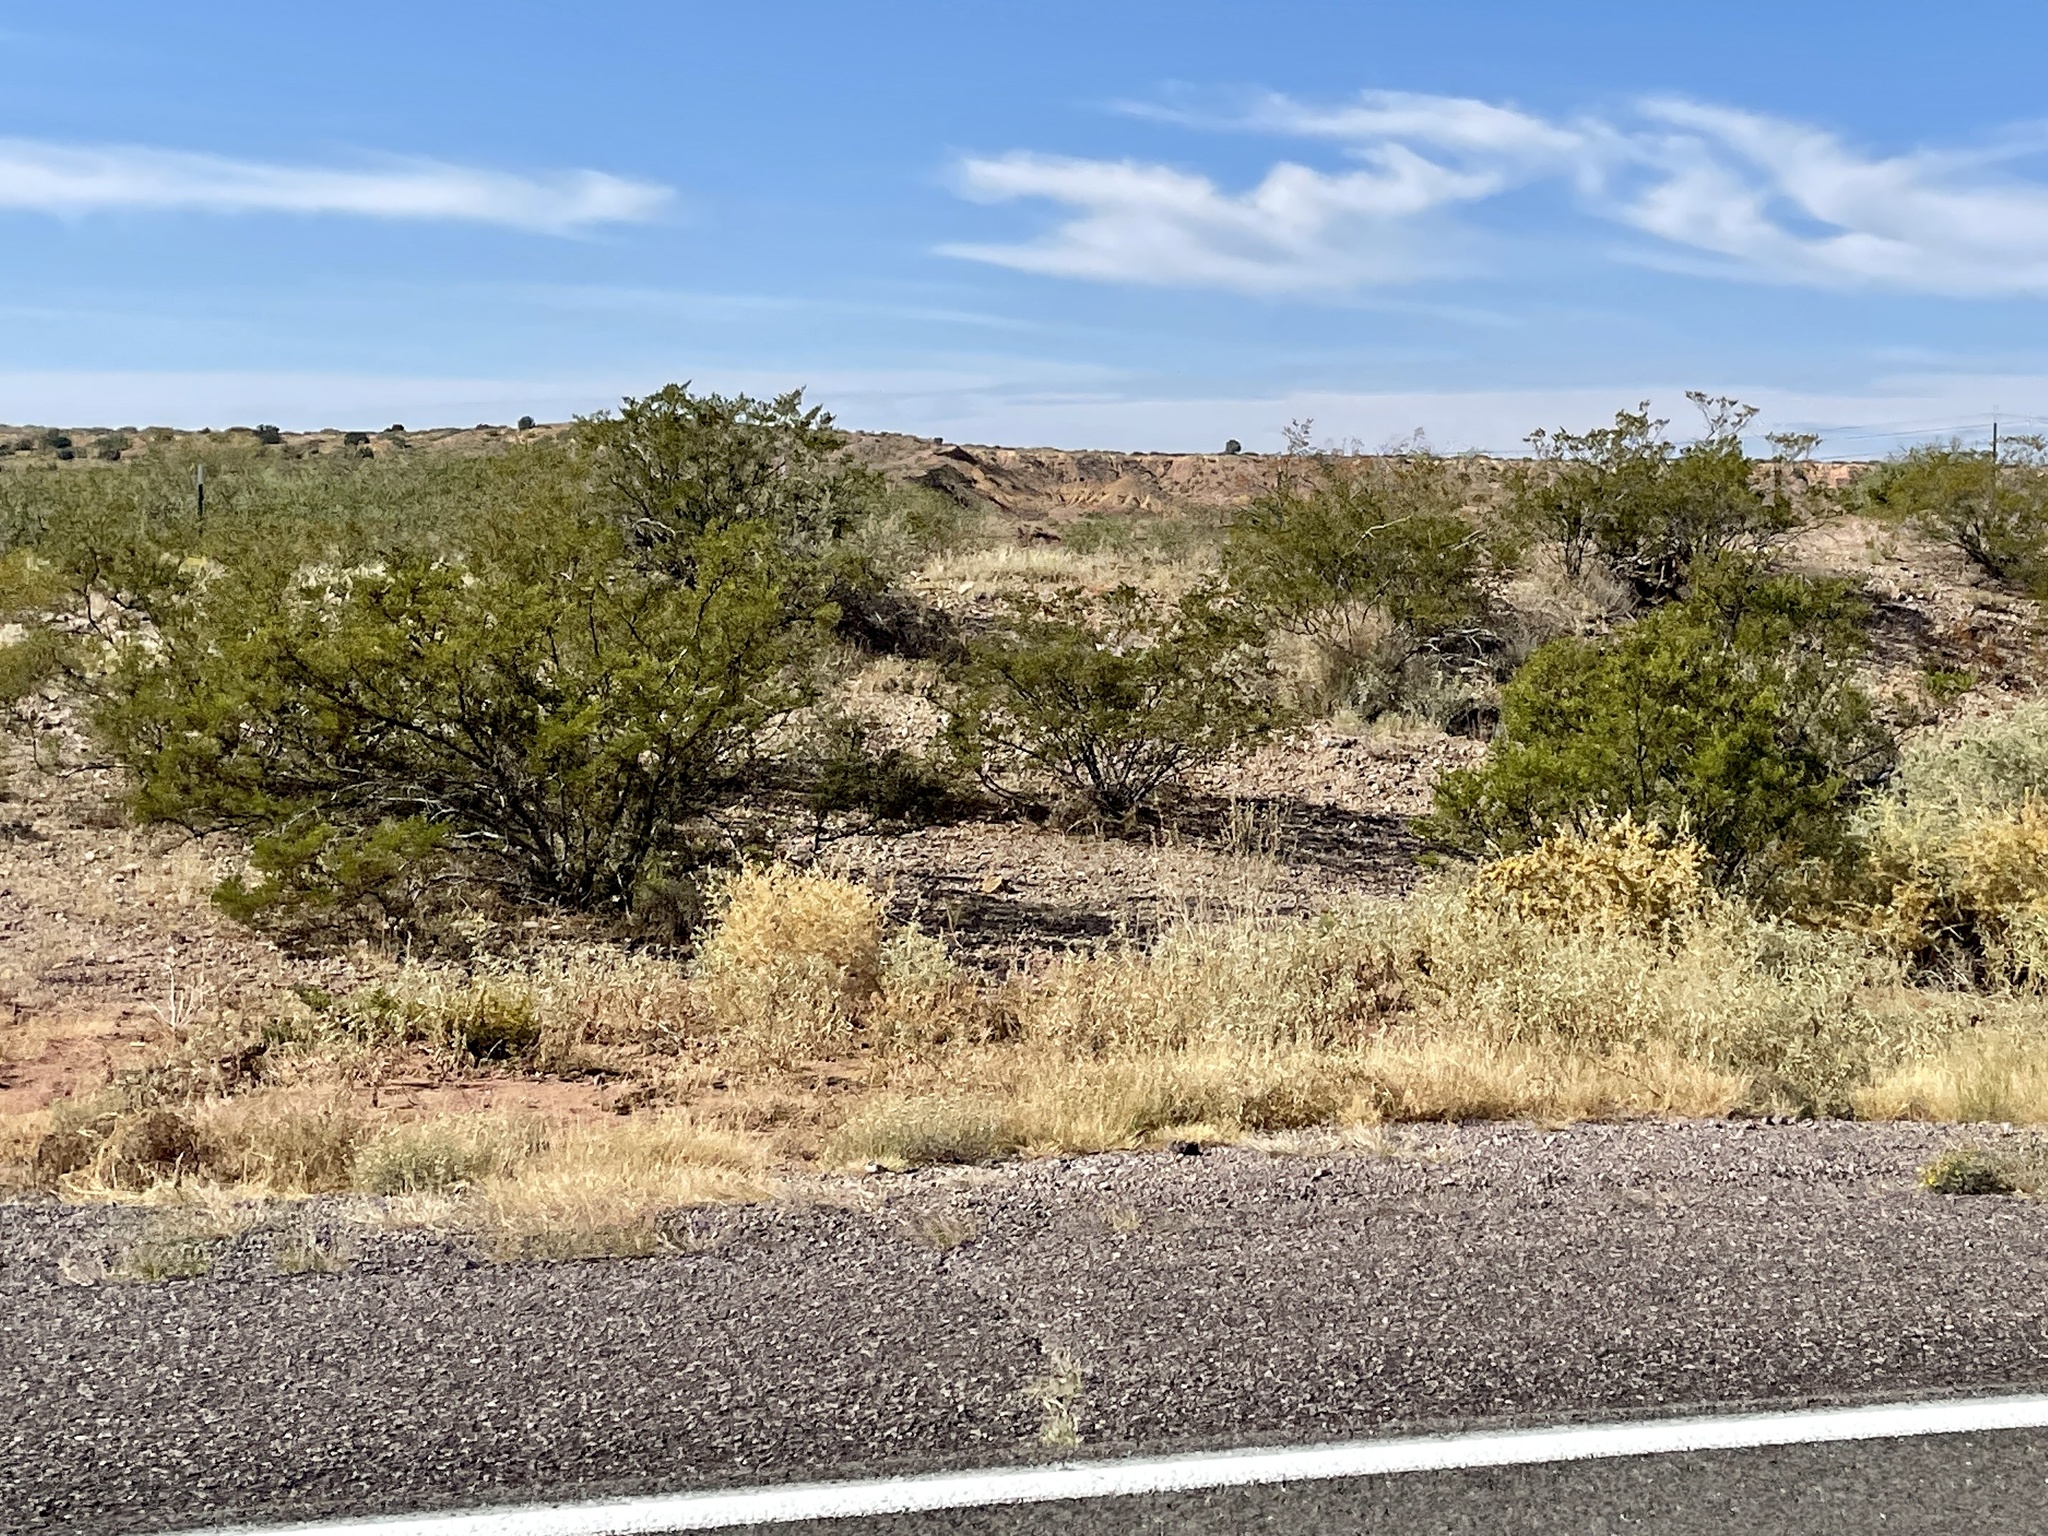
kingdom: Plantae
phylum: Tracheophyta
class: Magnoliopsida
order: Zygophyllales
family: Zygophyllaceae
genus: Larrea
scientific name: Larrea tridentata
